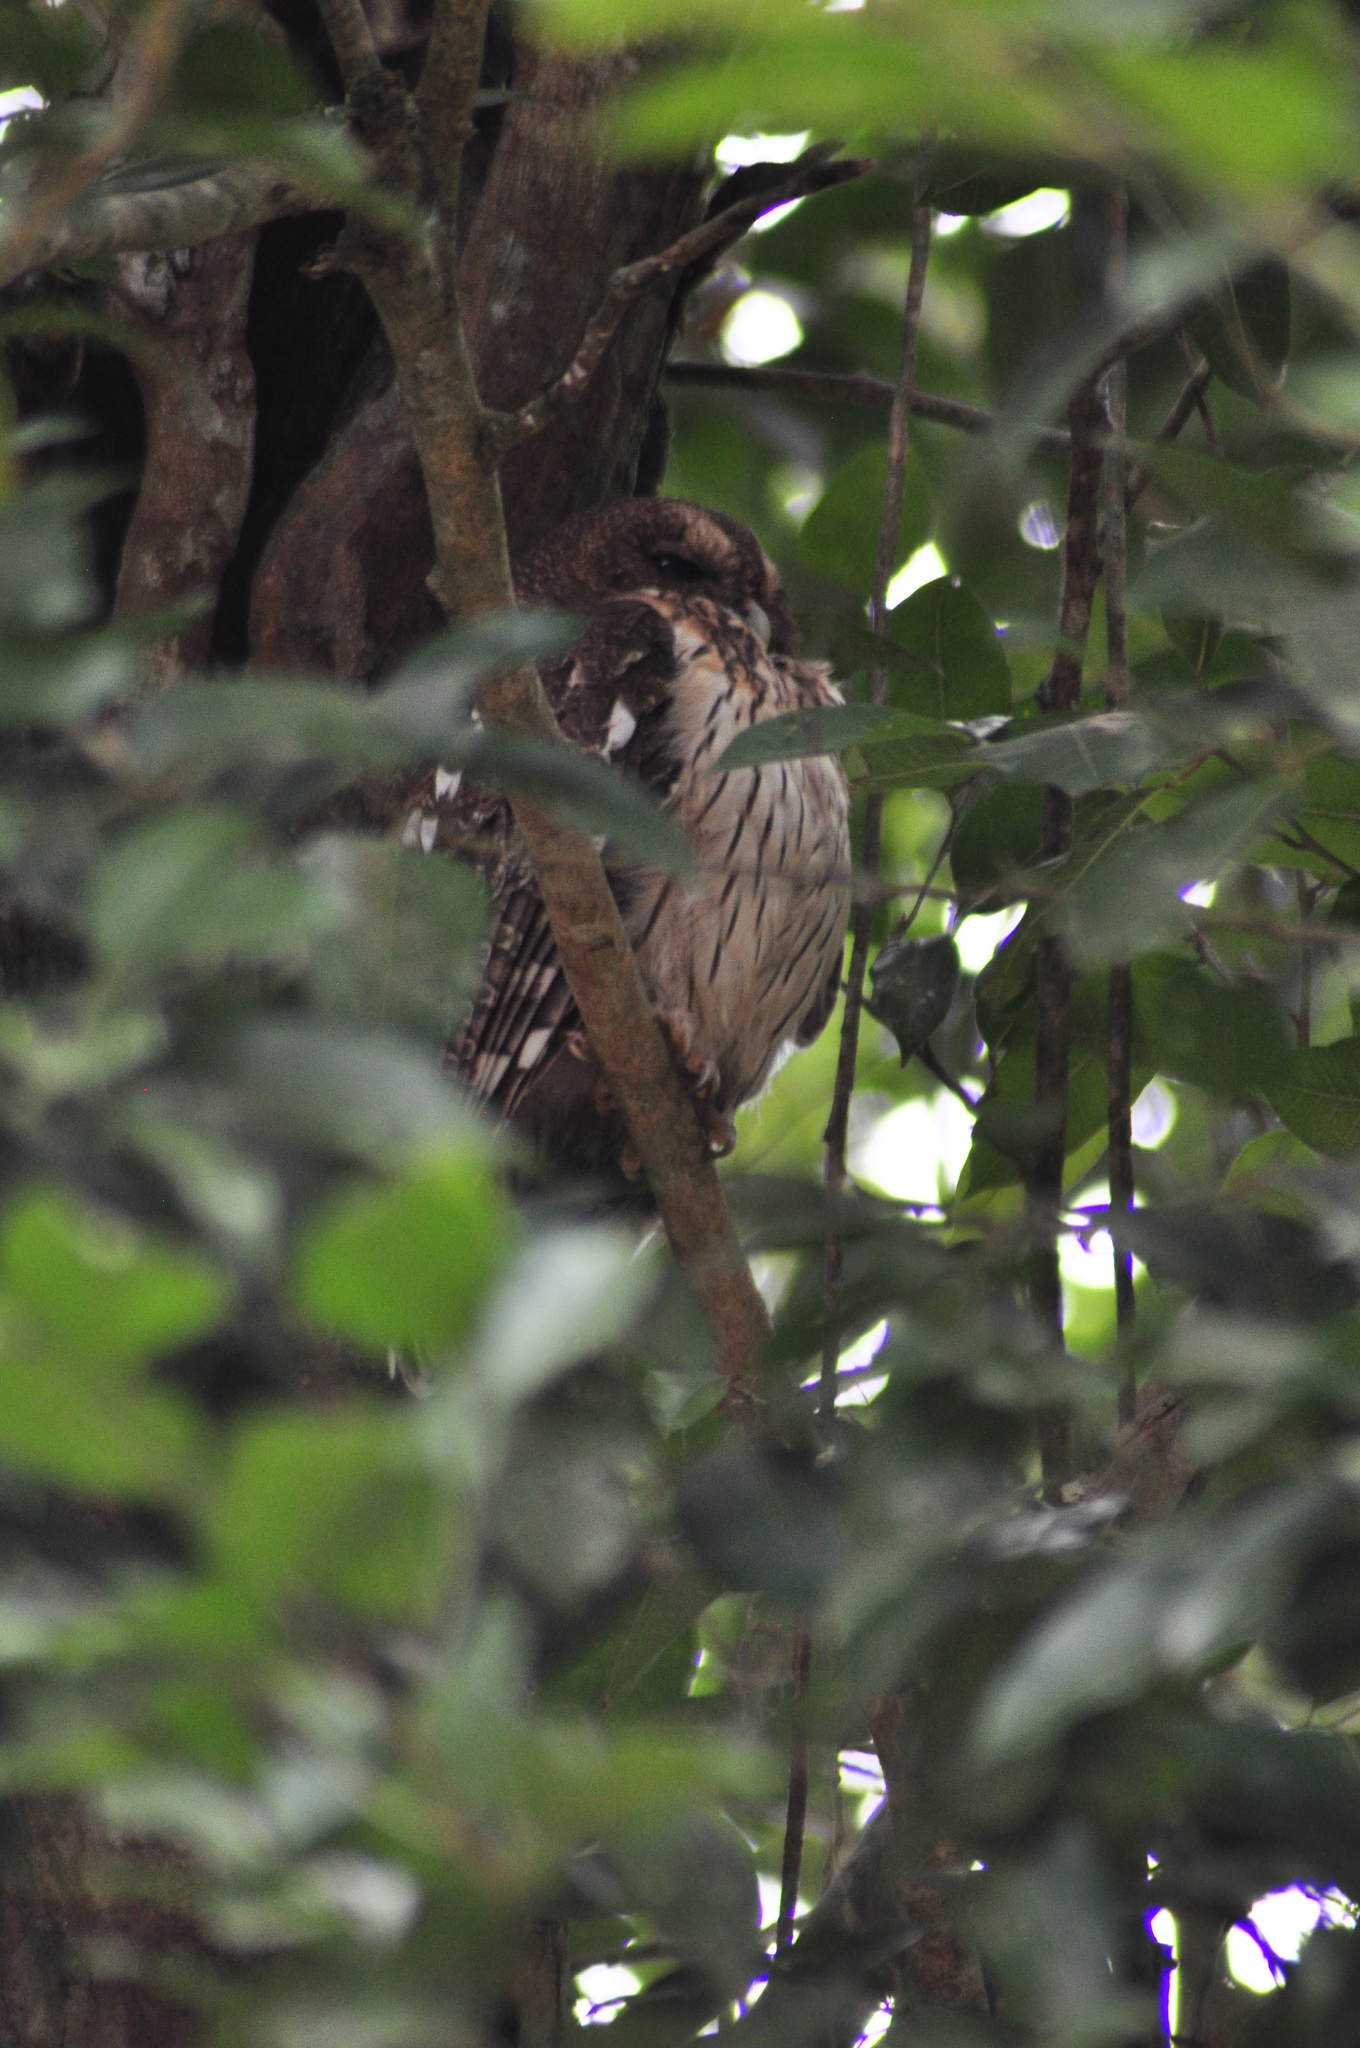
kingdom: Animalia
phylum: Chordata
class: Aves
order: Strigiformes
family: Strigidae
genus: Strix
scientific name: Strix virgata
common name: Mottled owl
